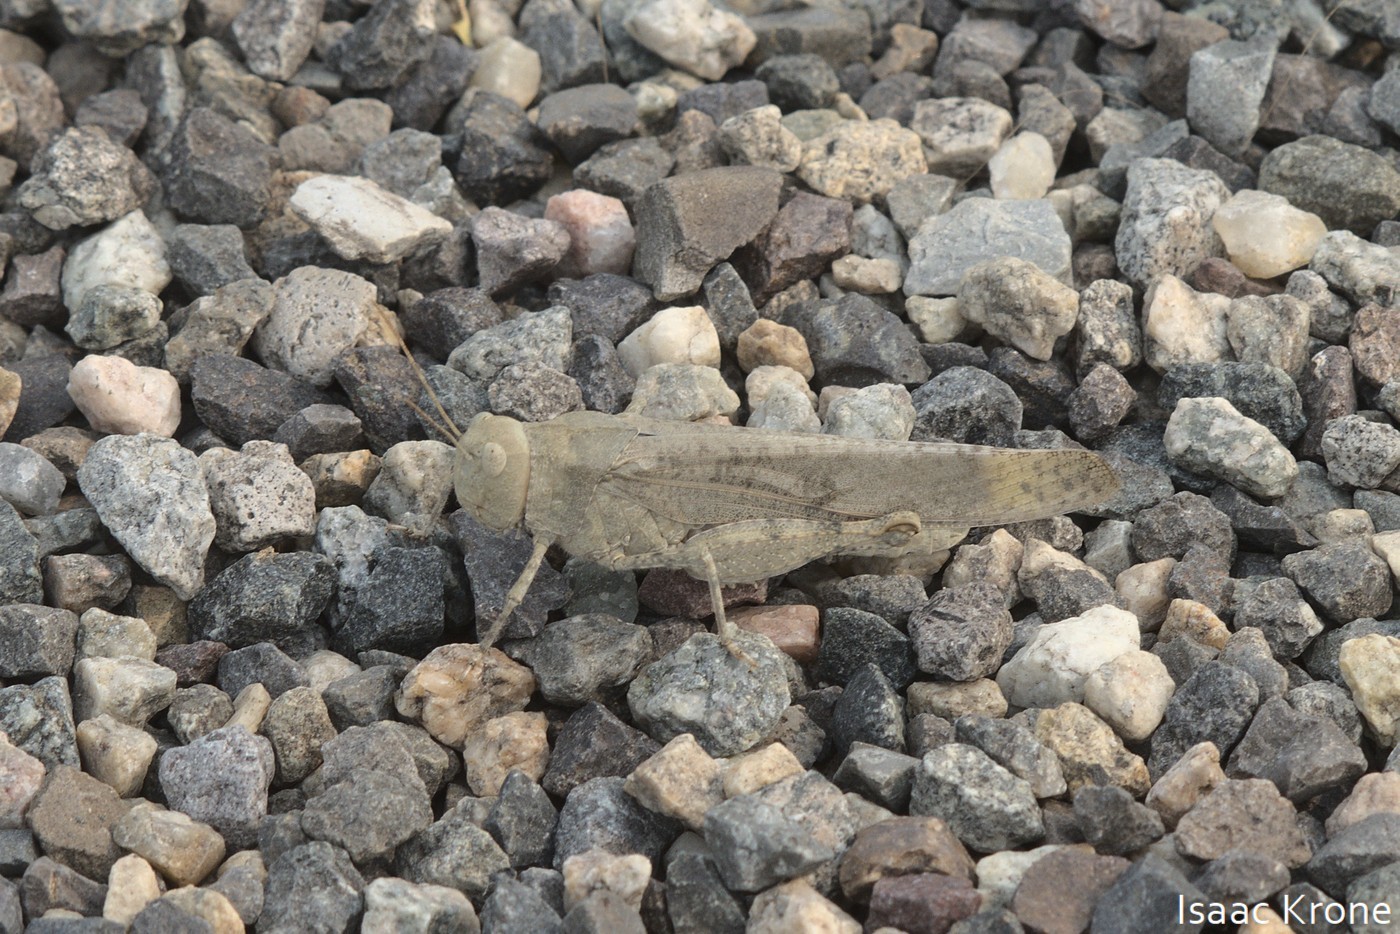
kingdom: Animalia
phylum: Arthropoda
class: Insecta
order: Orthoptera
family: Acrididae
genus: Dissosteira
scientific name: Dissosteira carolina
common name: Carolina grasshopper
